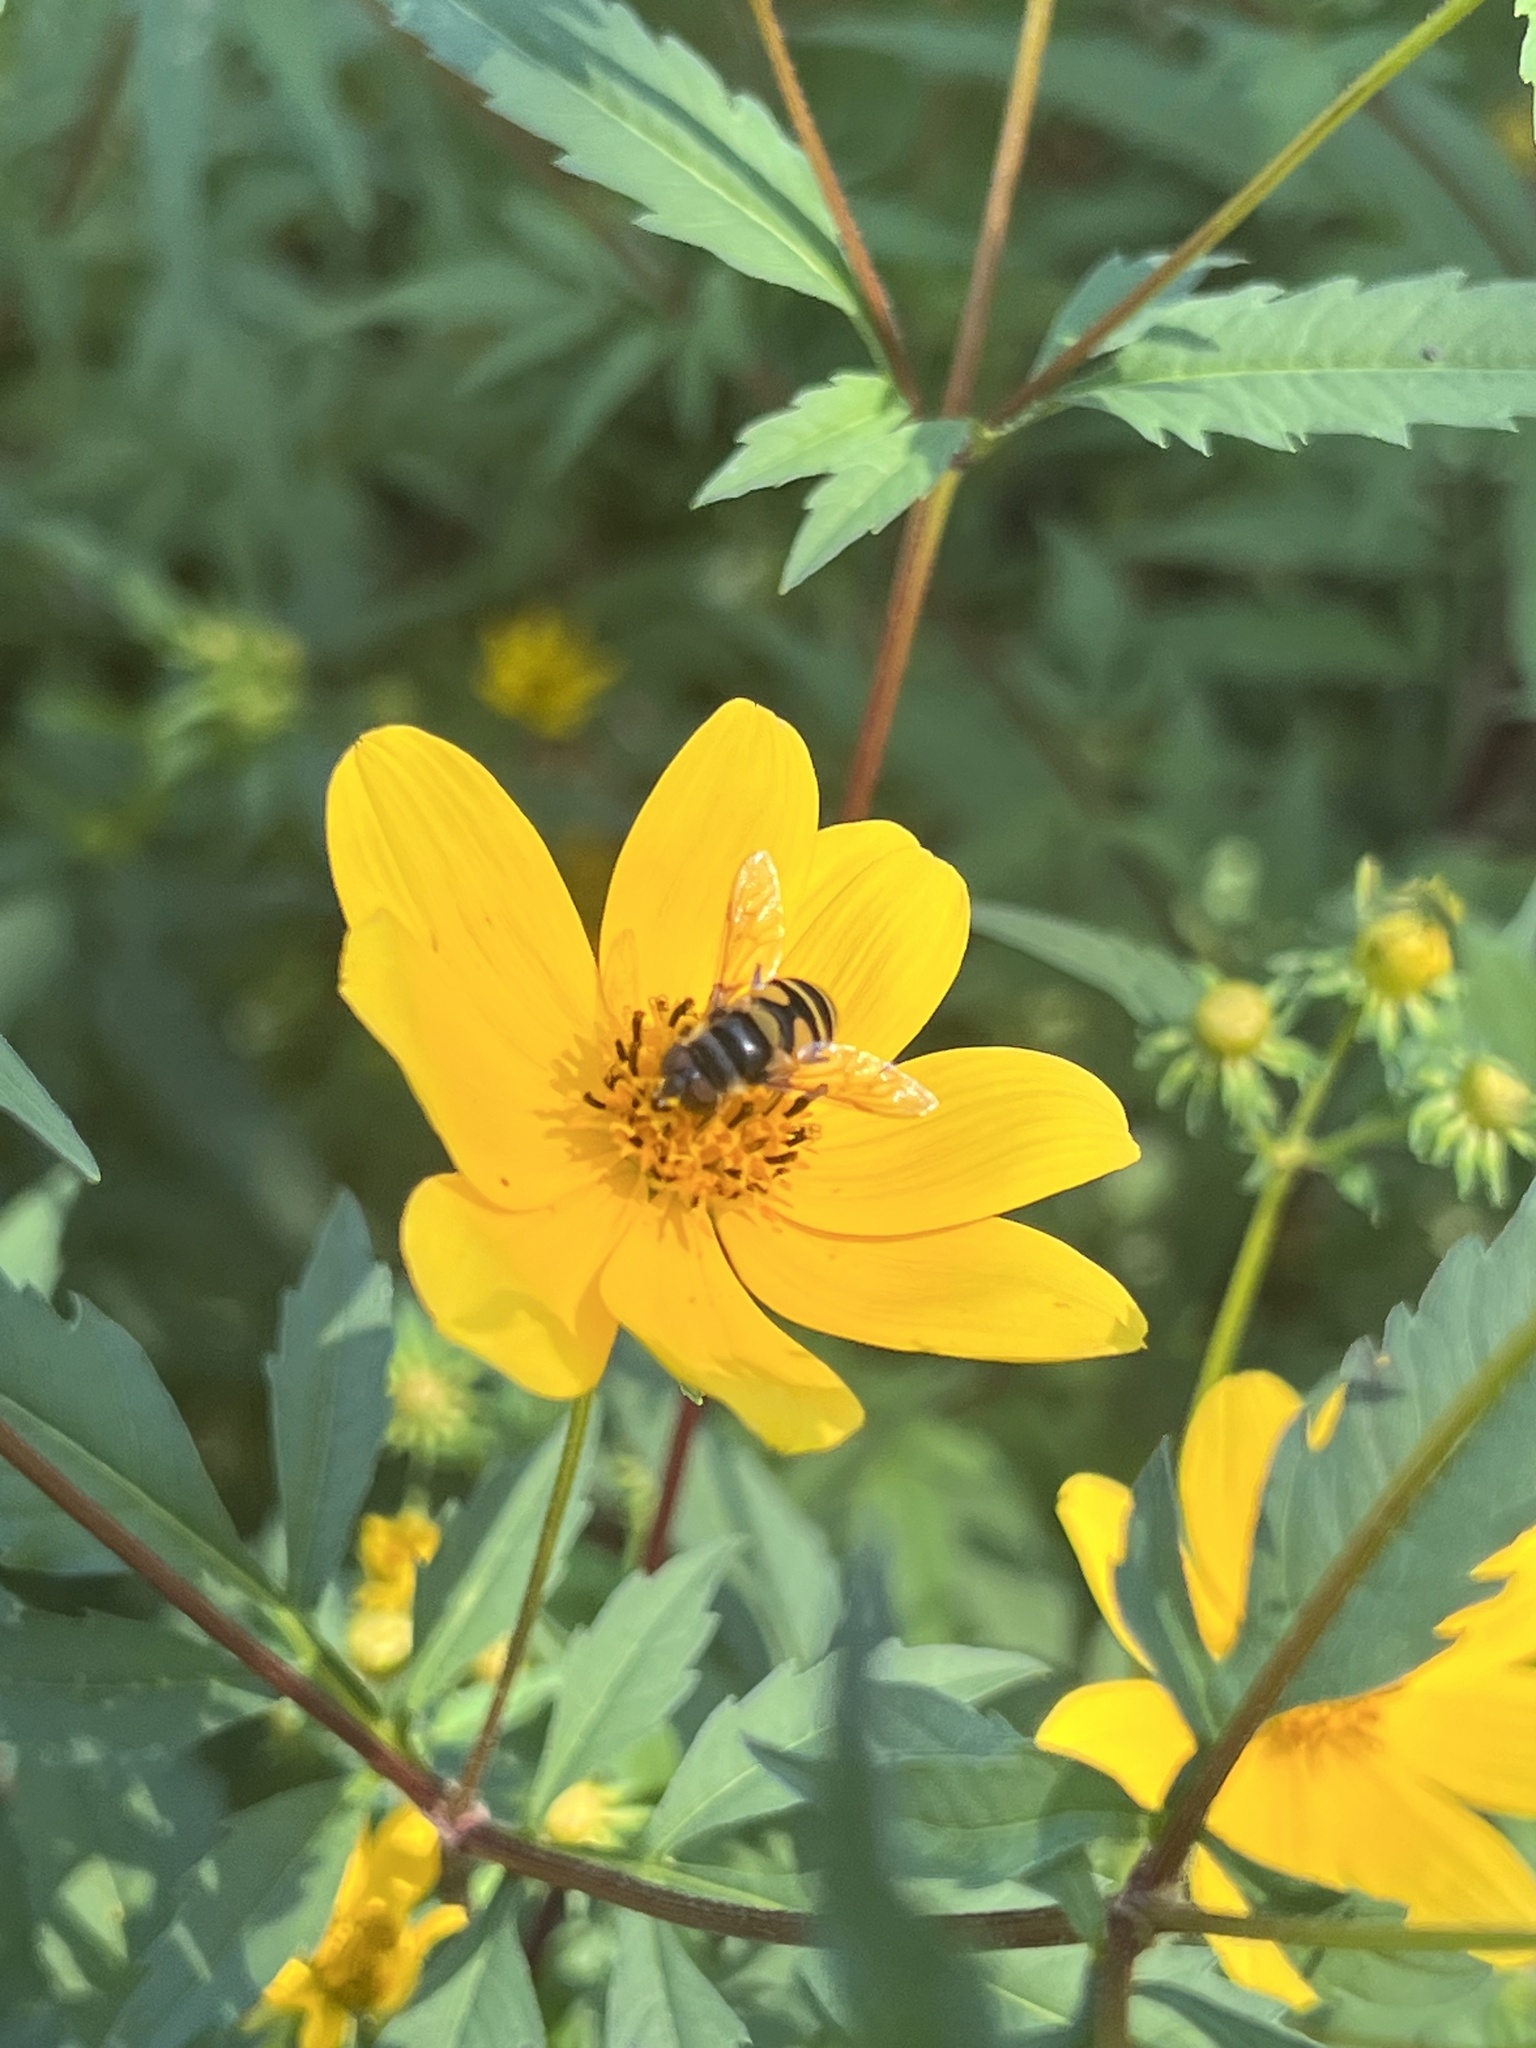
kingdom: Animalia
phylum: Arthropoda
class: Insecta
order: Diptera
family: Syrphidae
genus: Eristalis
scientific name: Eristalis transversa
